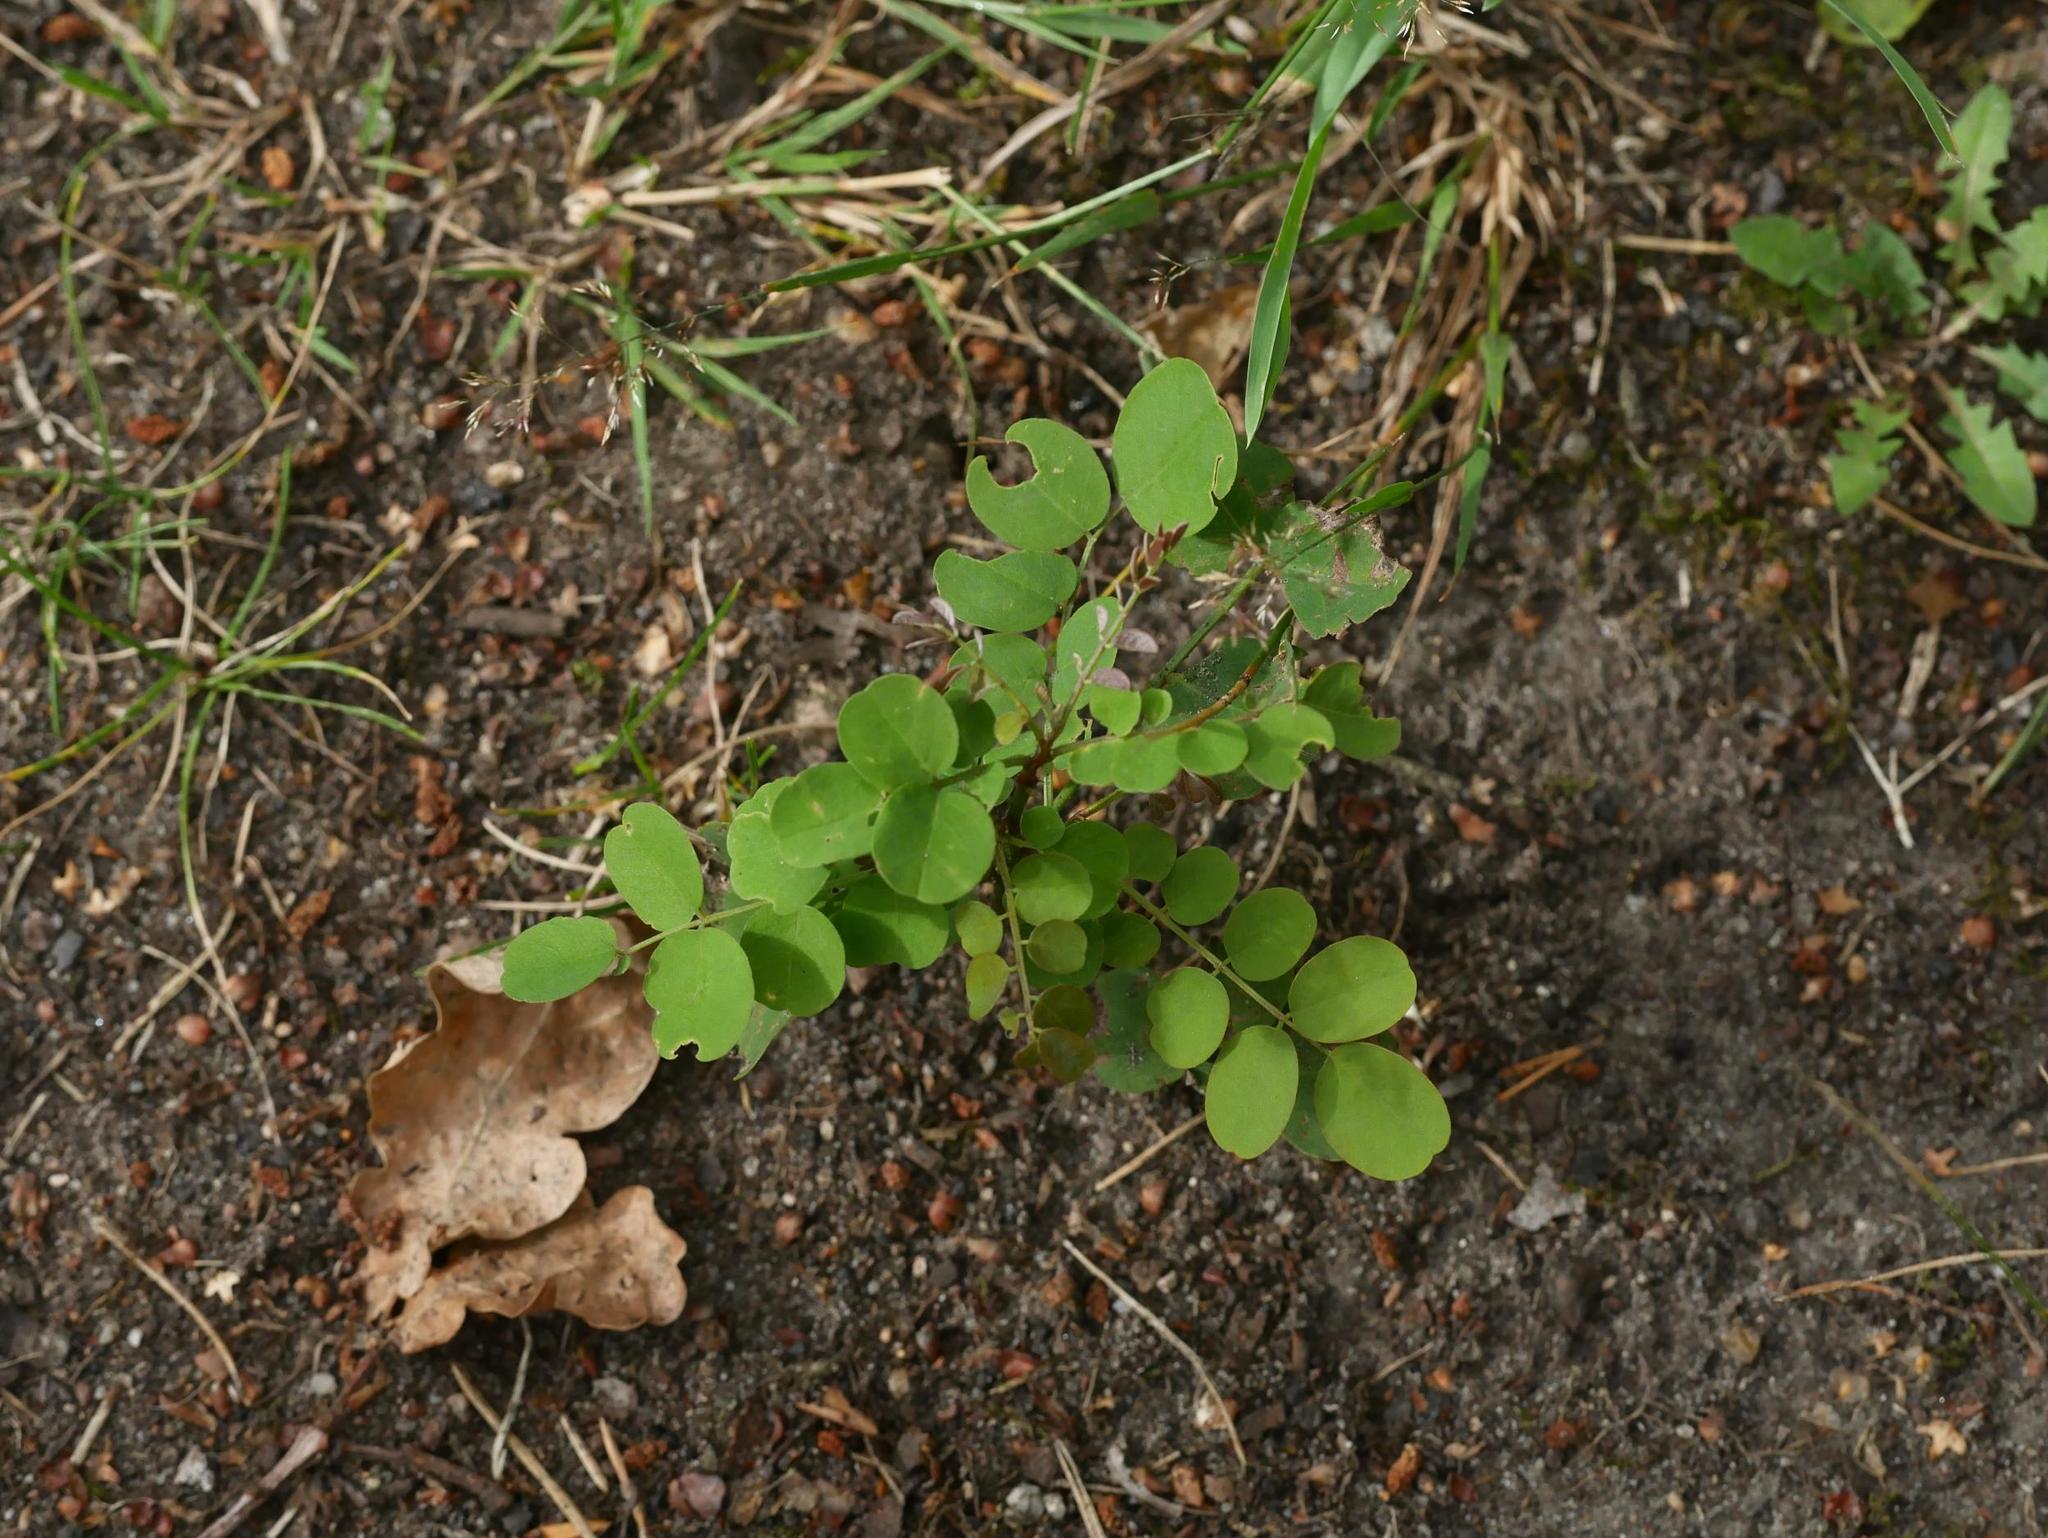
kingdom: Plantae
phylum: Tracheophyta
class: Magnoliopsida
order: Fabales
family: Fabaceae
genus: Robinia
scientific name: Robinia pseudoacacia
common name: Black locust
